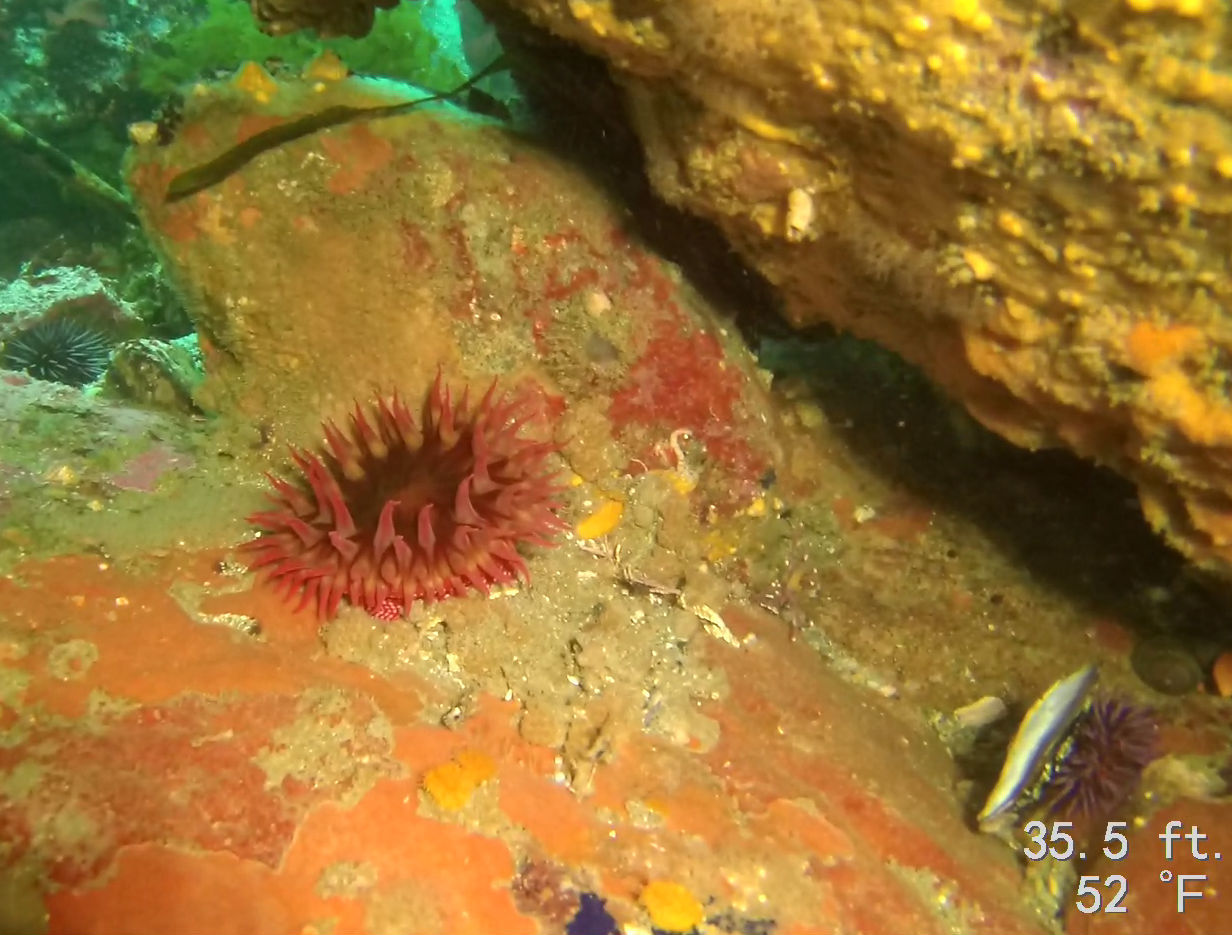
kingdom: Animalia
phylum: Cnidaria
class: Anthozoa
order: Actiniaria
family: Actiniidae
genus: Cribrinopsis
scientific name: Cribrinopsis albopunctata
